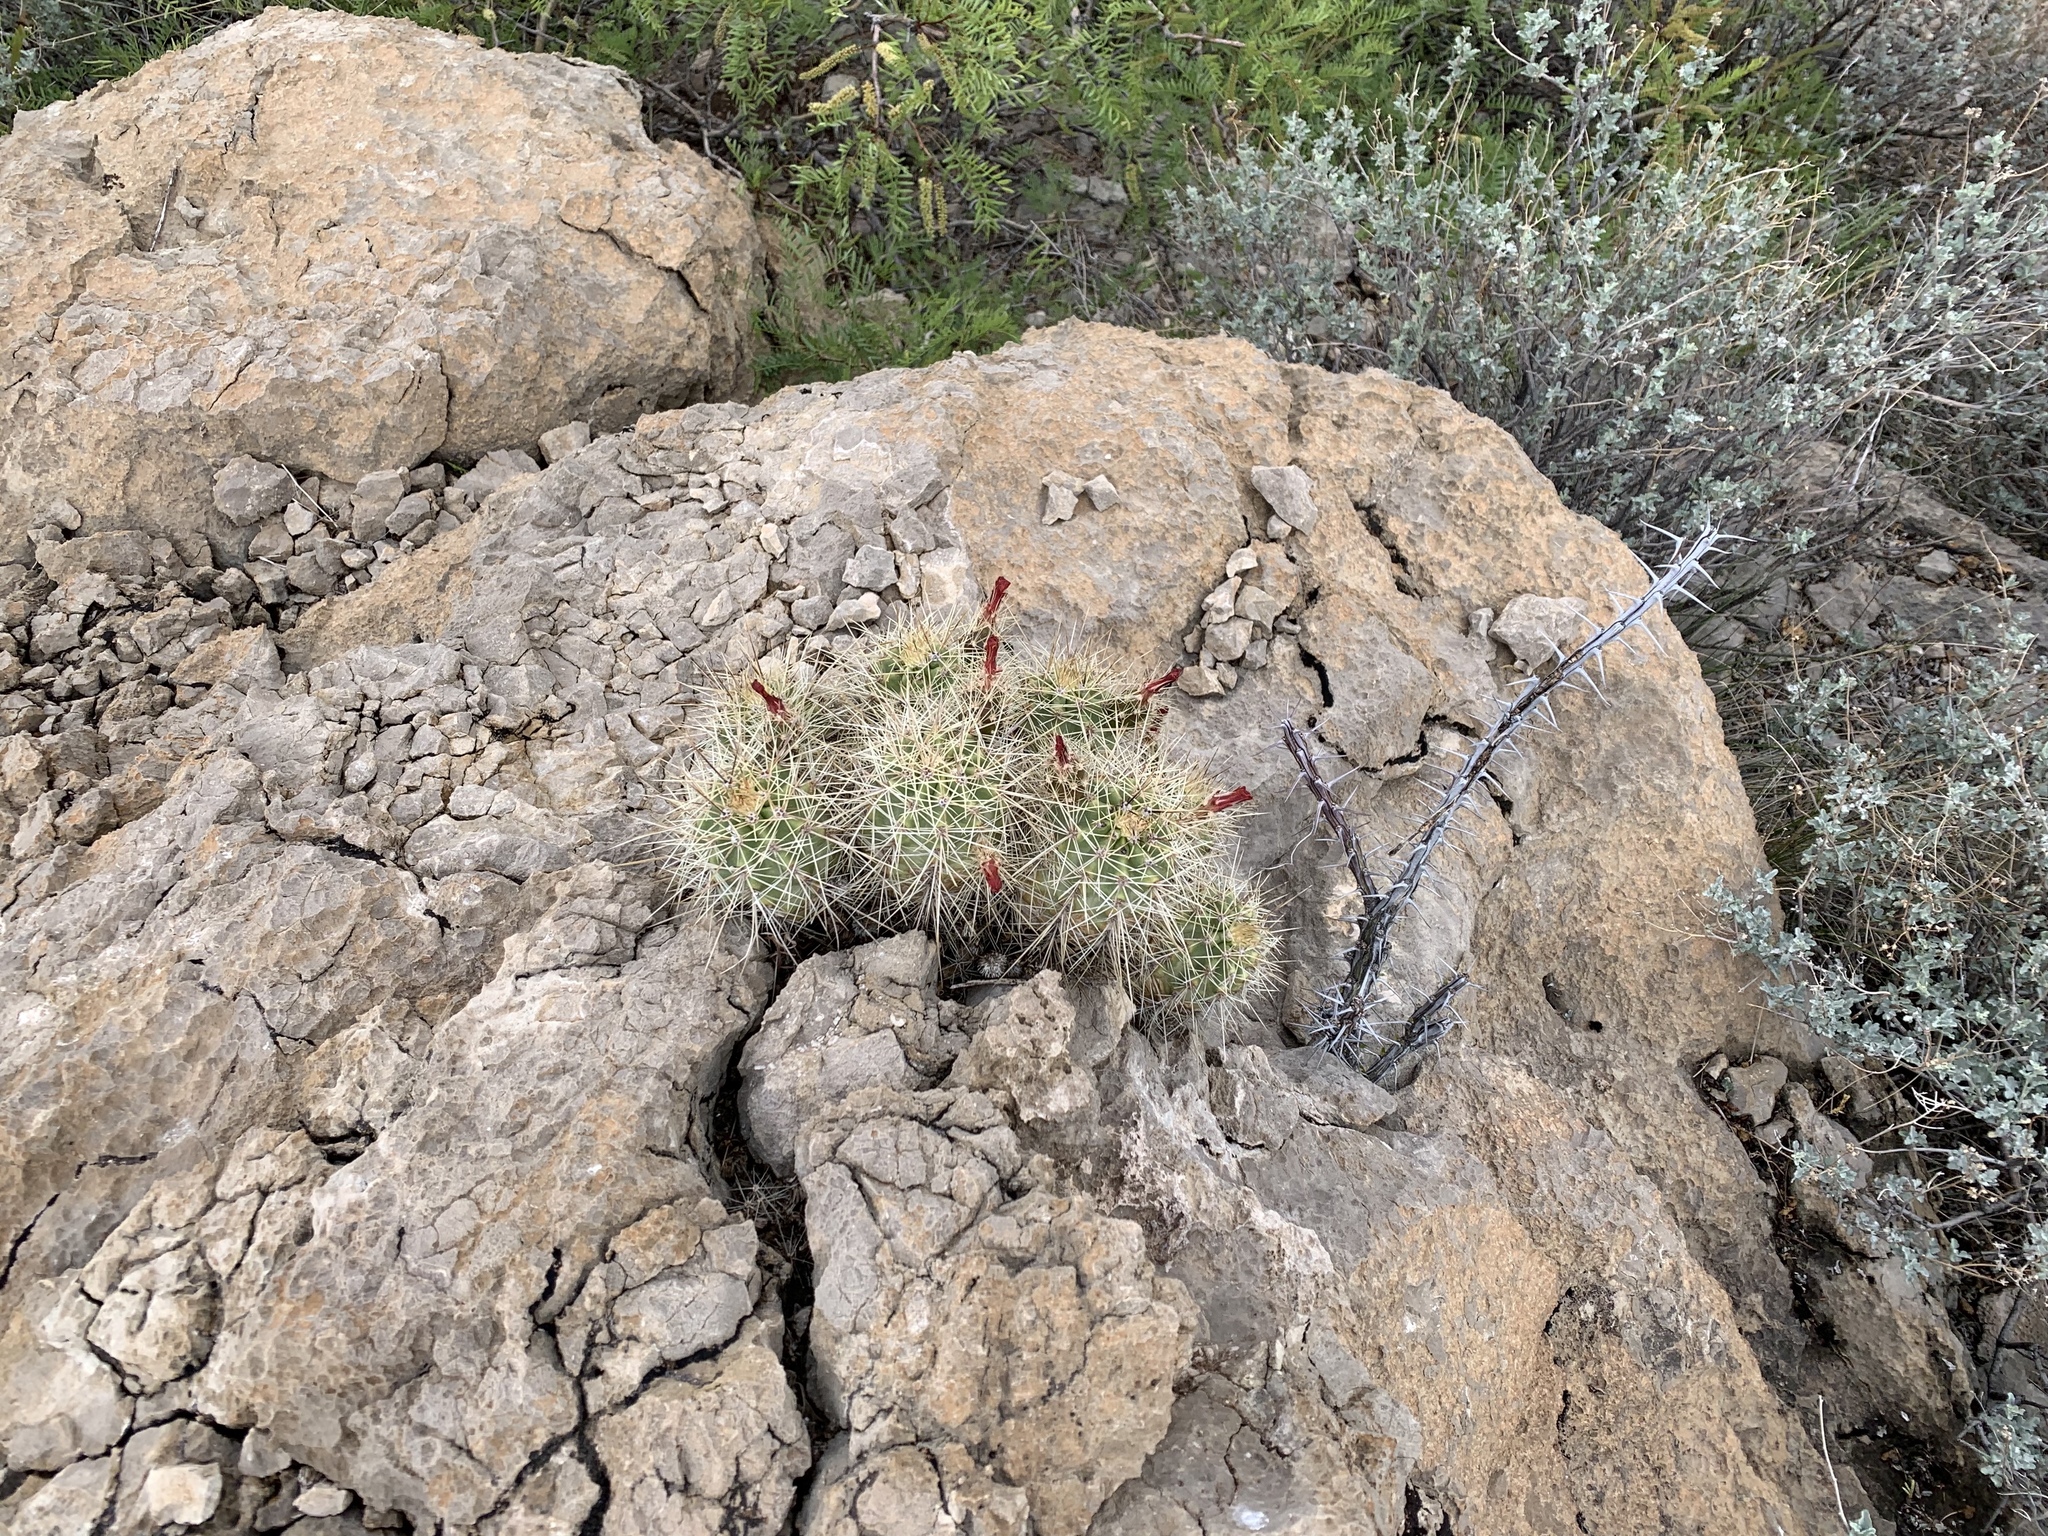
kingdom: Plantae
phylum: Tracheophyta
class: Magnoliopsida
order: Caryophyllales
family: Cactaceae
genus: Echinocereus
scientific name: Echinocereus coccineus
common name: Scarlet hedgehog cactus
